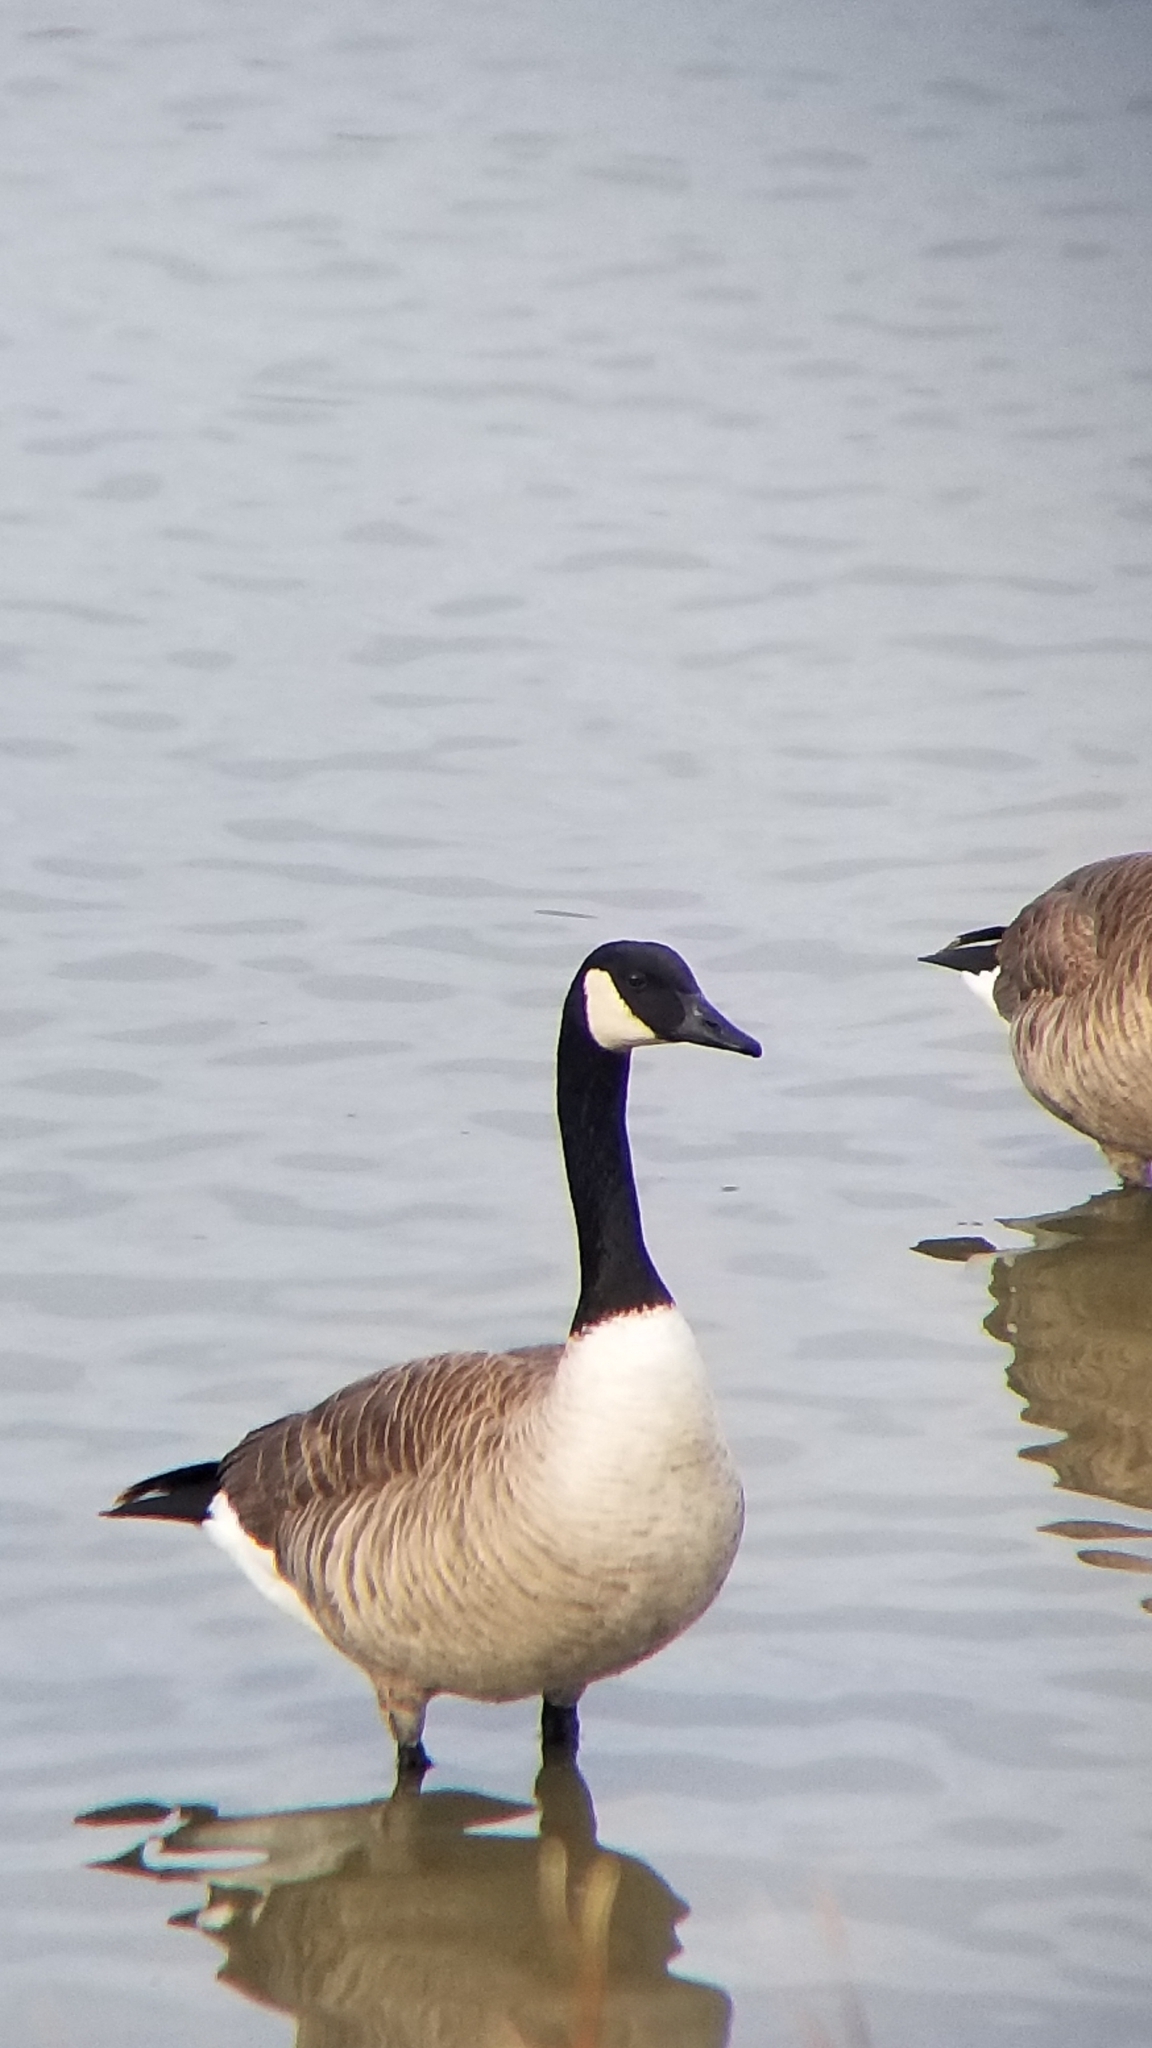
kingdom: Animalia
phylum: Chordata
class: Aves
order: Anseriformes
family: Anatidae
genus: Branta
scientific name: Branta canadensis
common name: Canada goose
